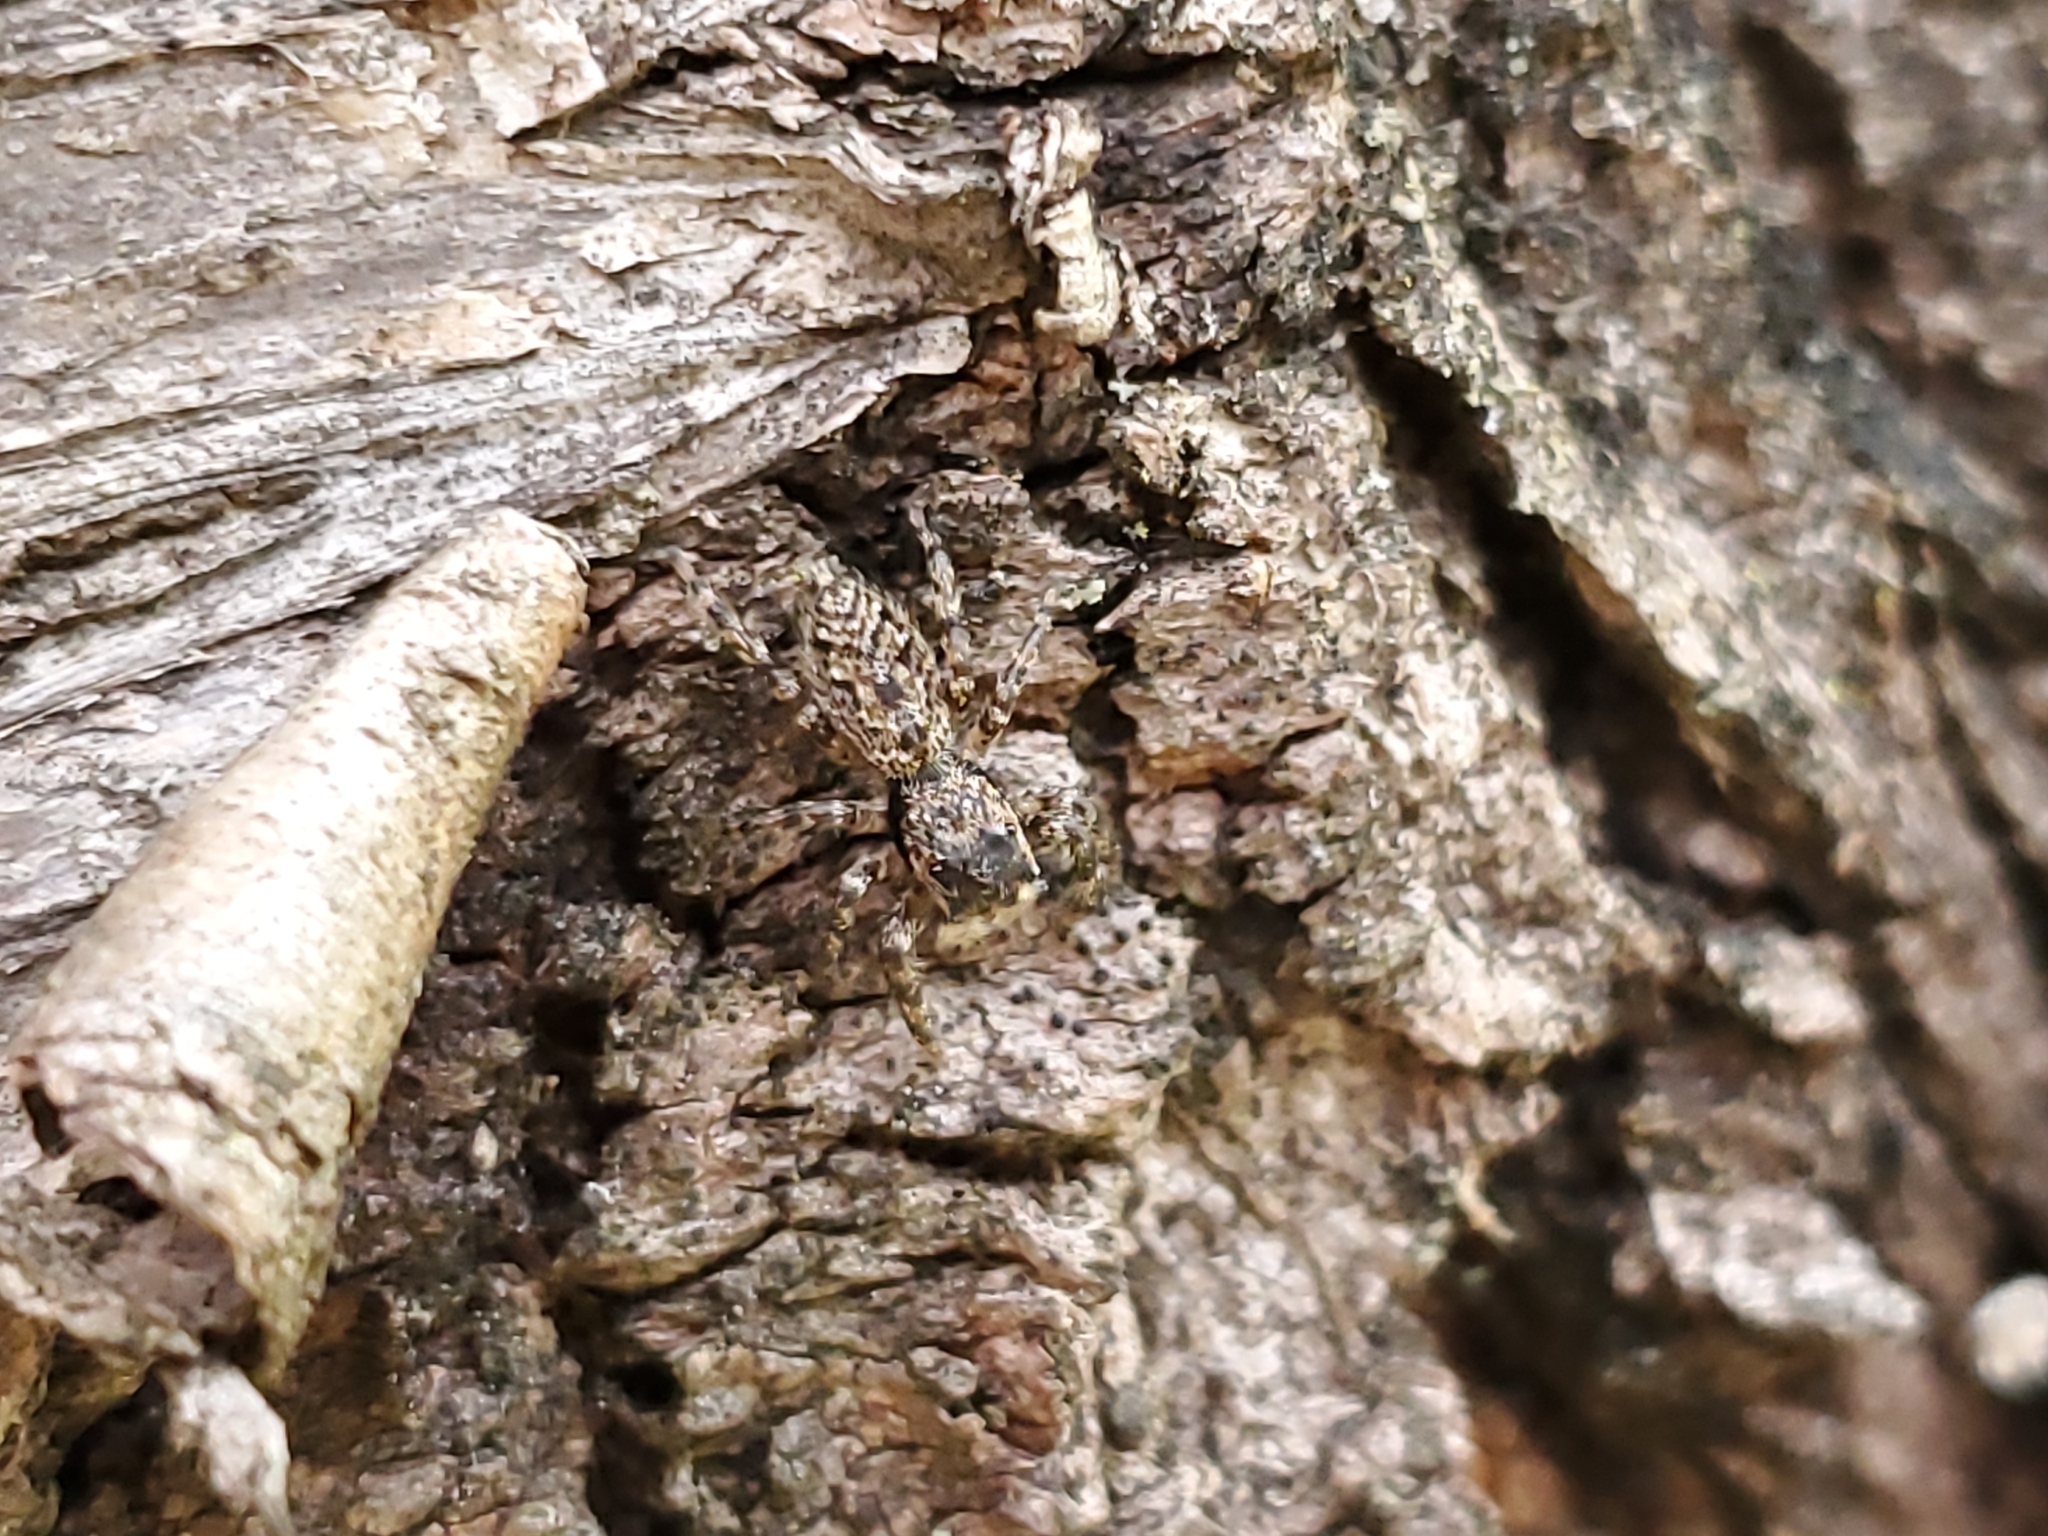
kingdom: Animalia
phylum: Arthropoda
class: Arachnida
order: Araneae
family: Salticidae
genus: Platycryptus
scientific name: Platycryptus undatus
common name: Tan jumping spider
